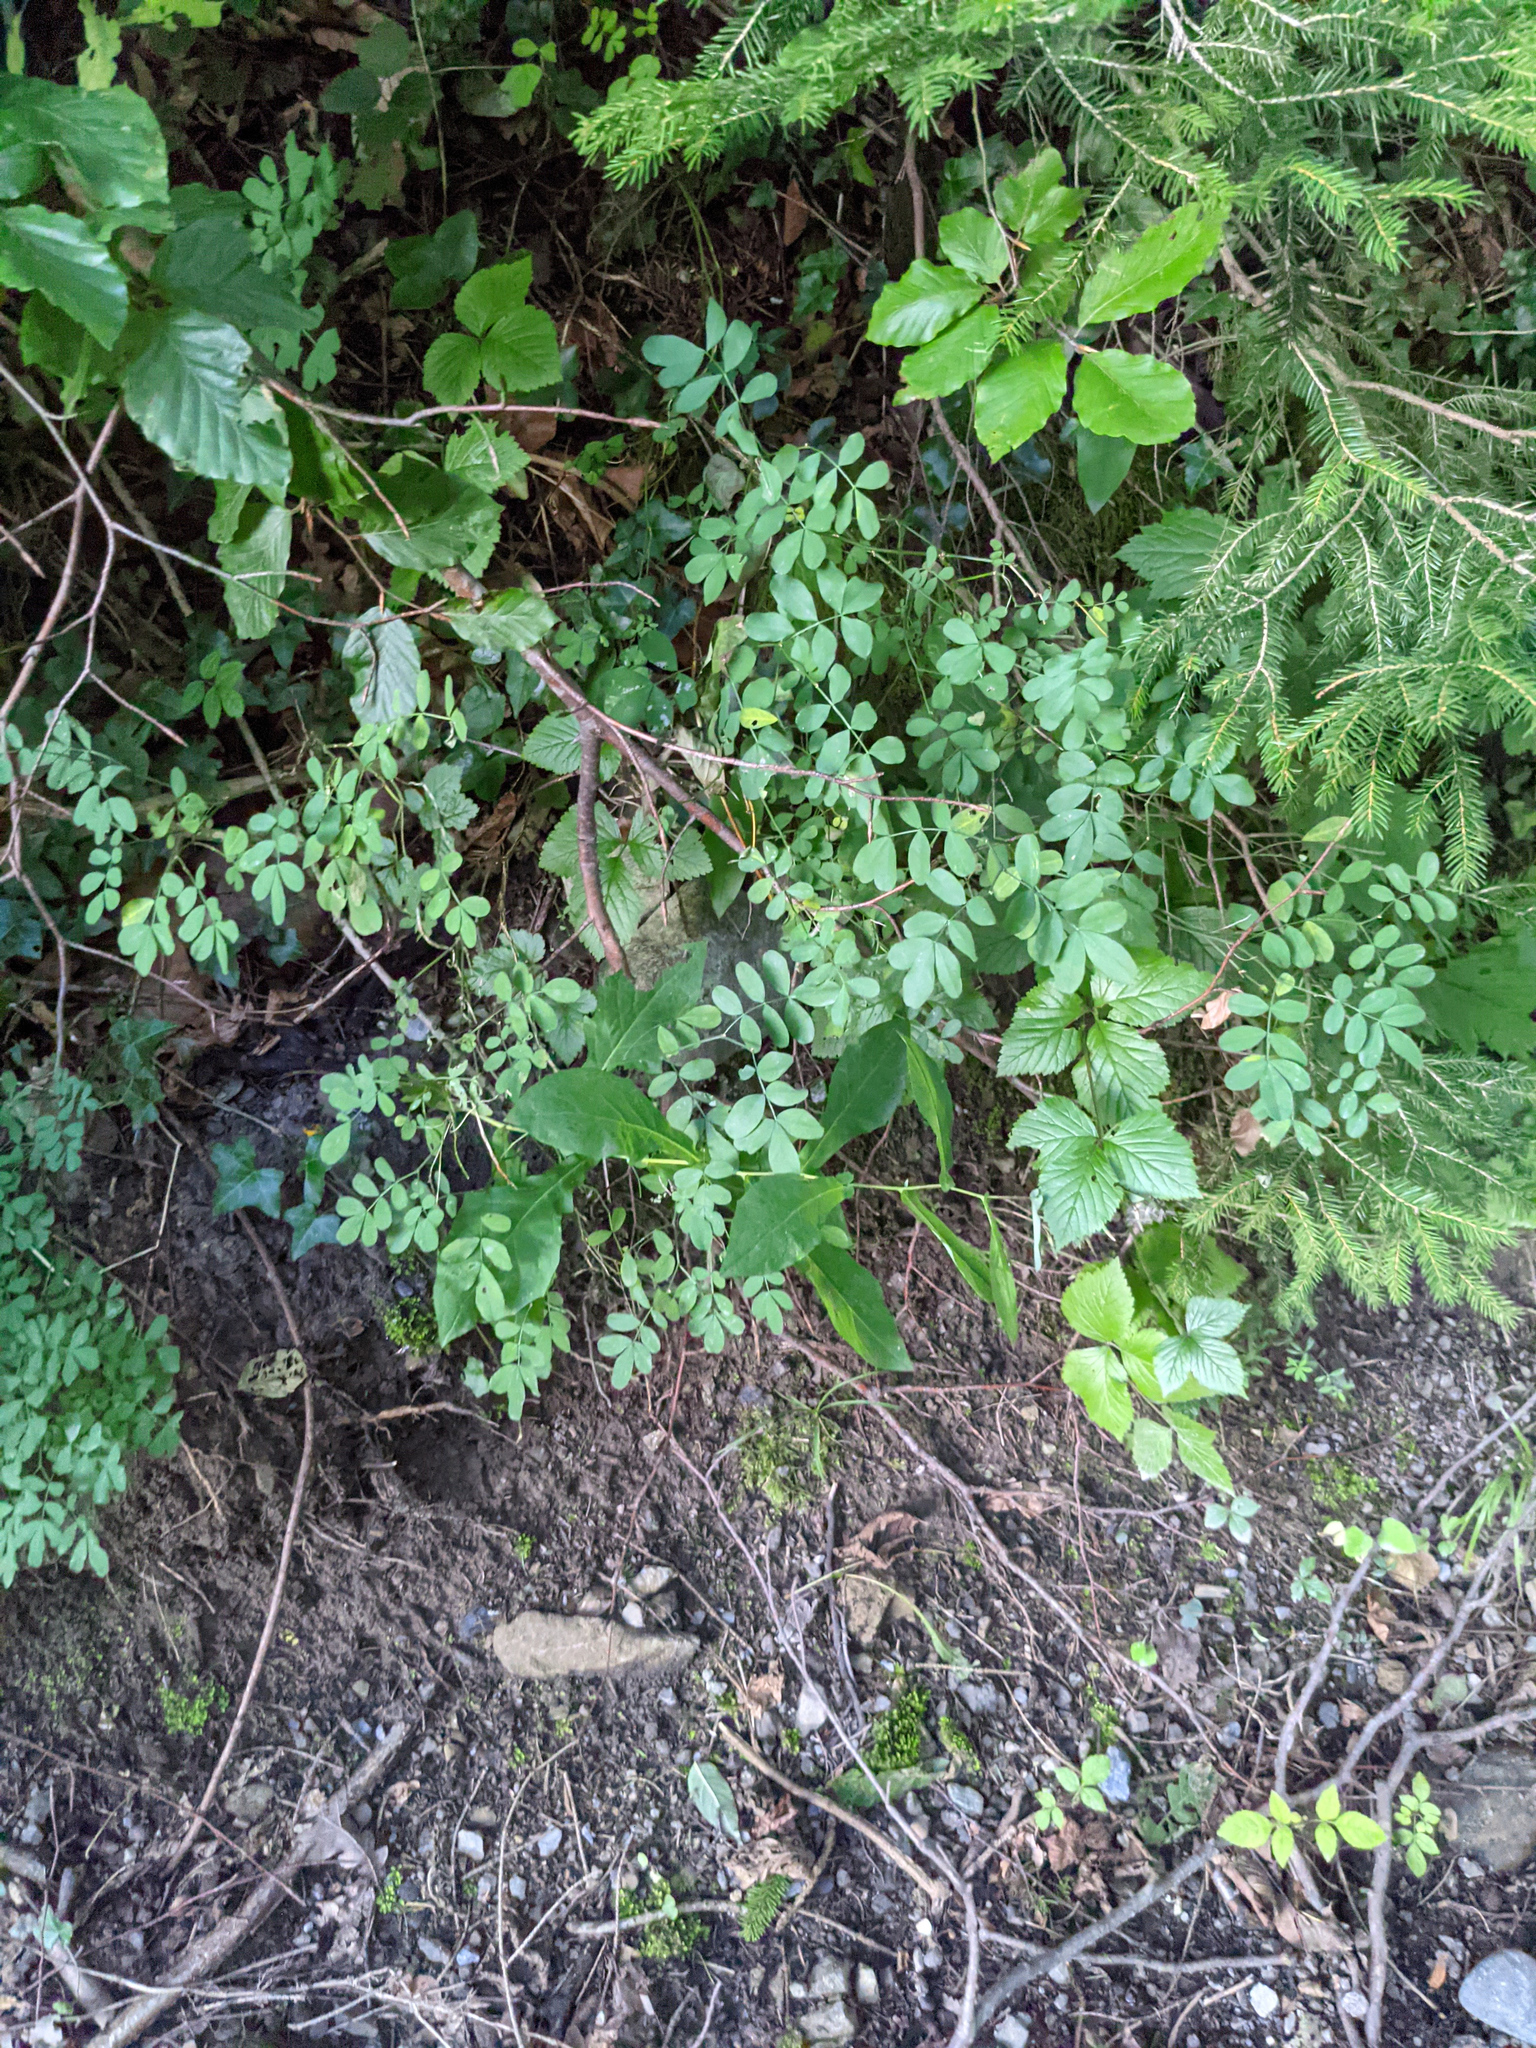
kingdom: Plantae
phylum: Tracheophyta
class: Magnoliopsida
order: Fabales
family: Fabaceae
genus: Hippocrepis
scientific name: Hippocrepis emerus
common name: Scorpion senna
